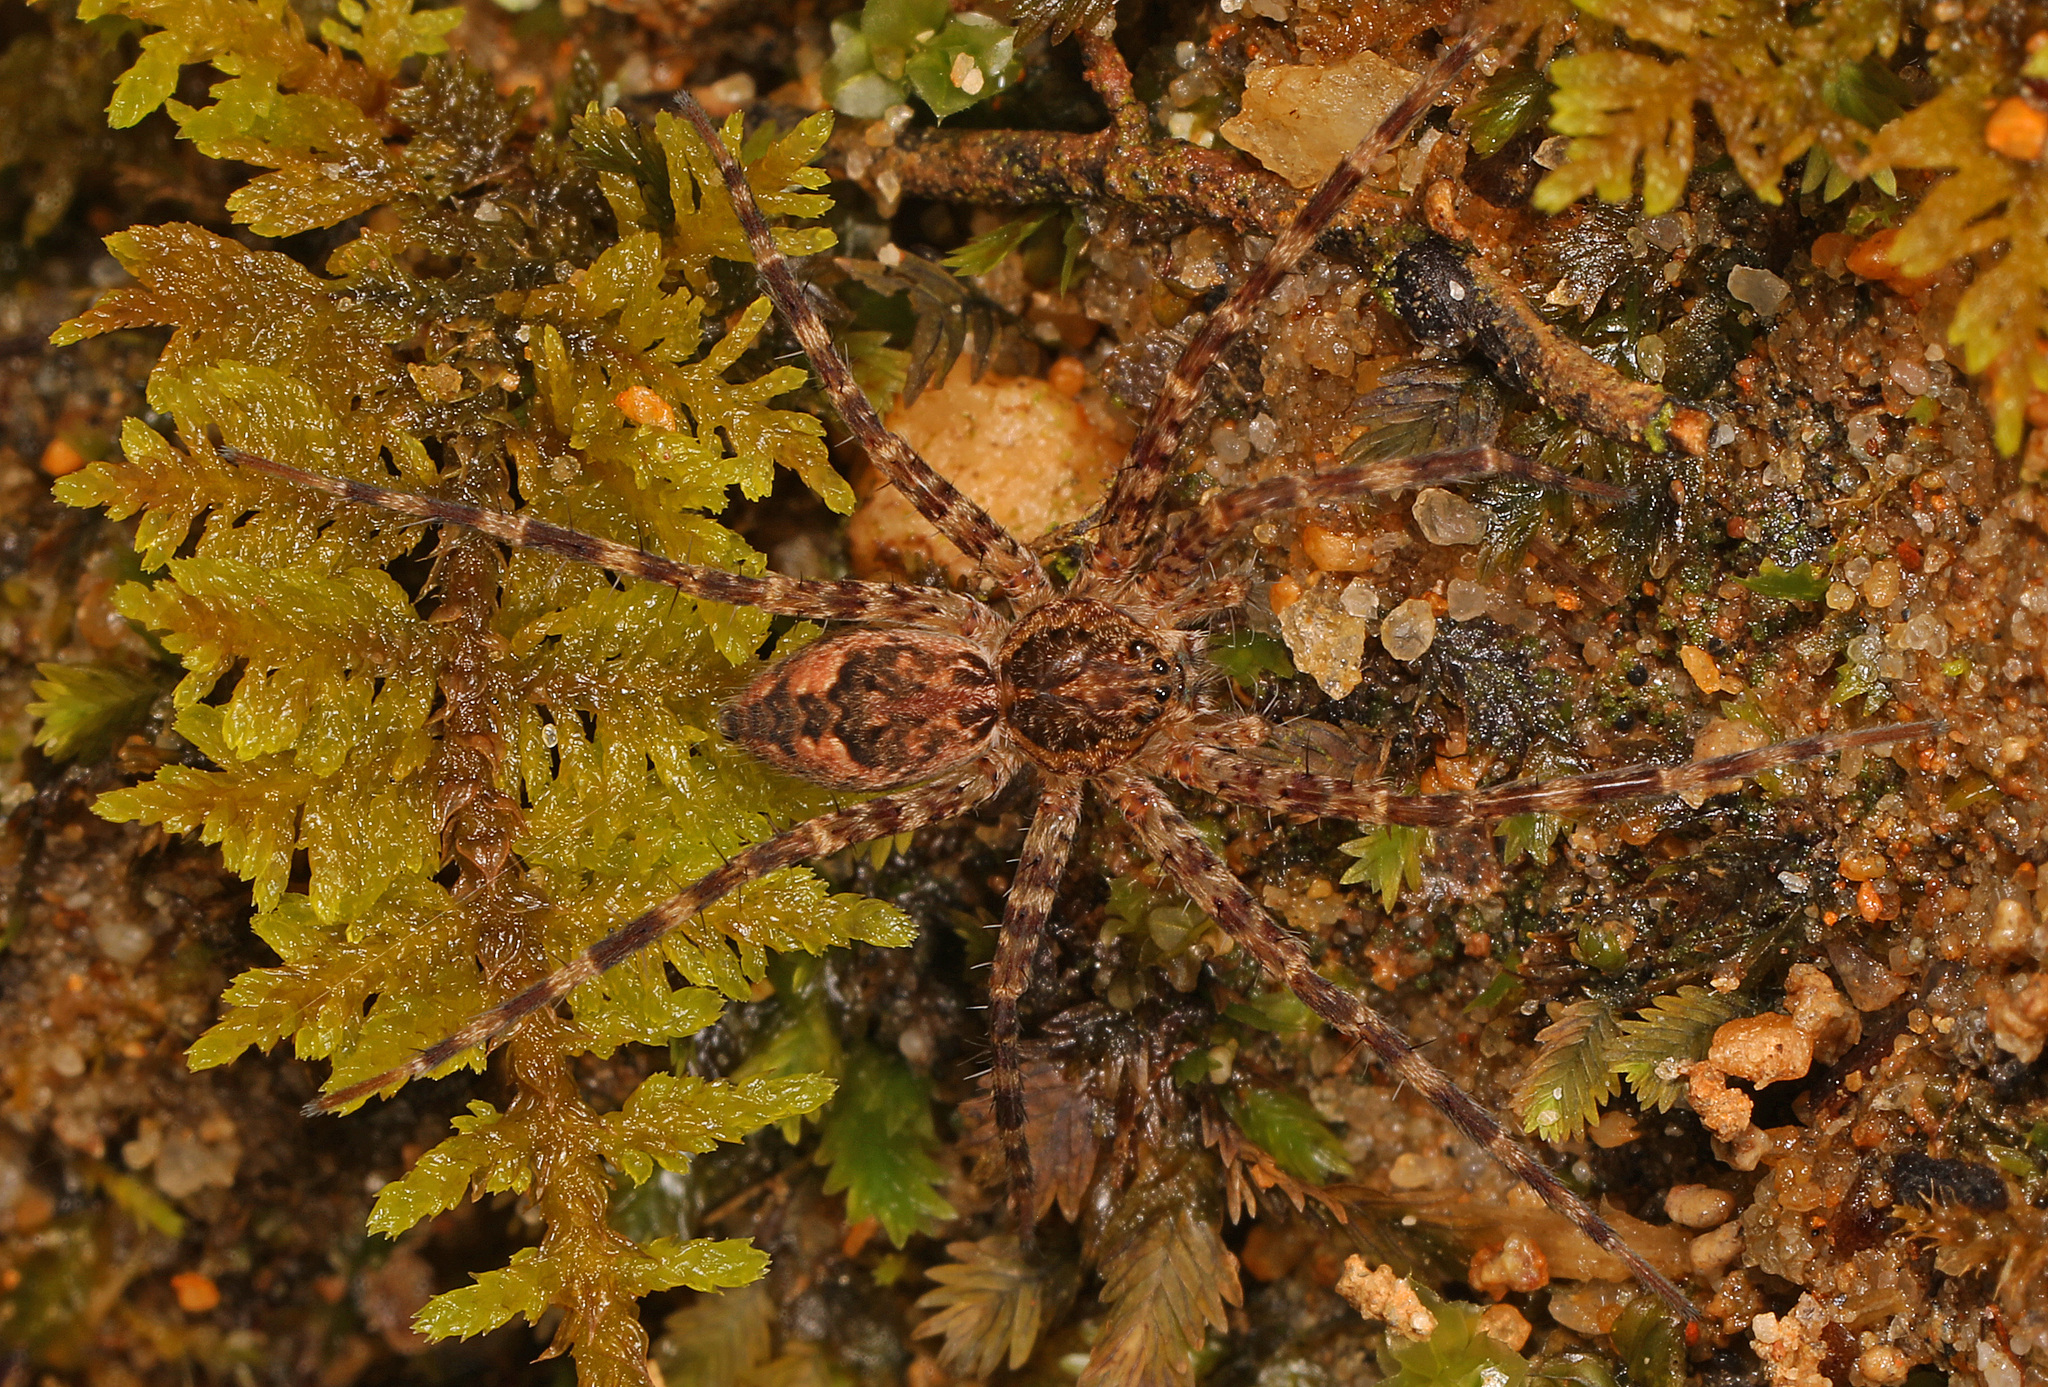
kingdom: Animalia
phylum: Arthropoda
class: Arachnida
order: Araneae
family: Pisauridae
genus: Dolomedes
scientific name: Dolomedes tenebrosus
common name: Dark fishing spider
